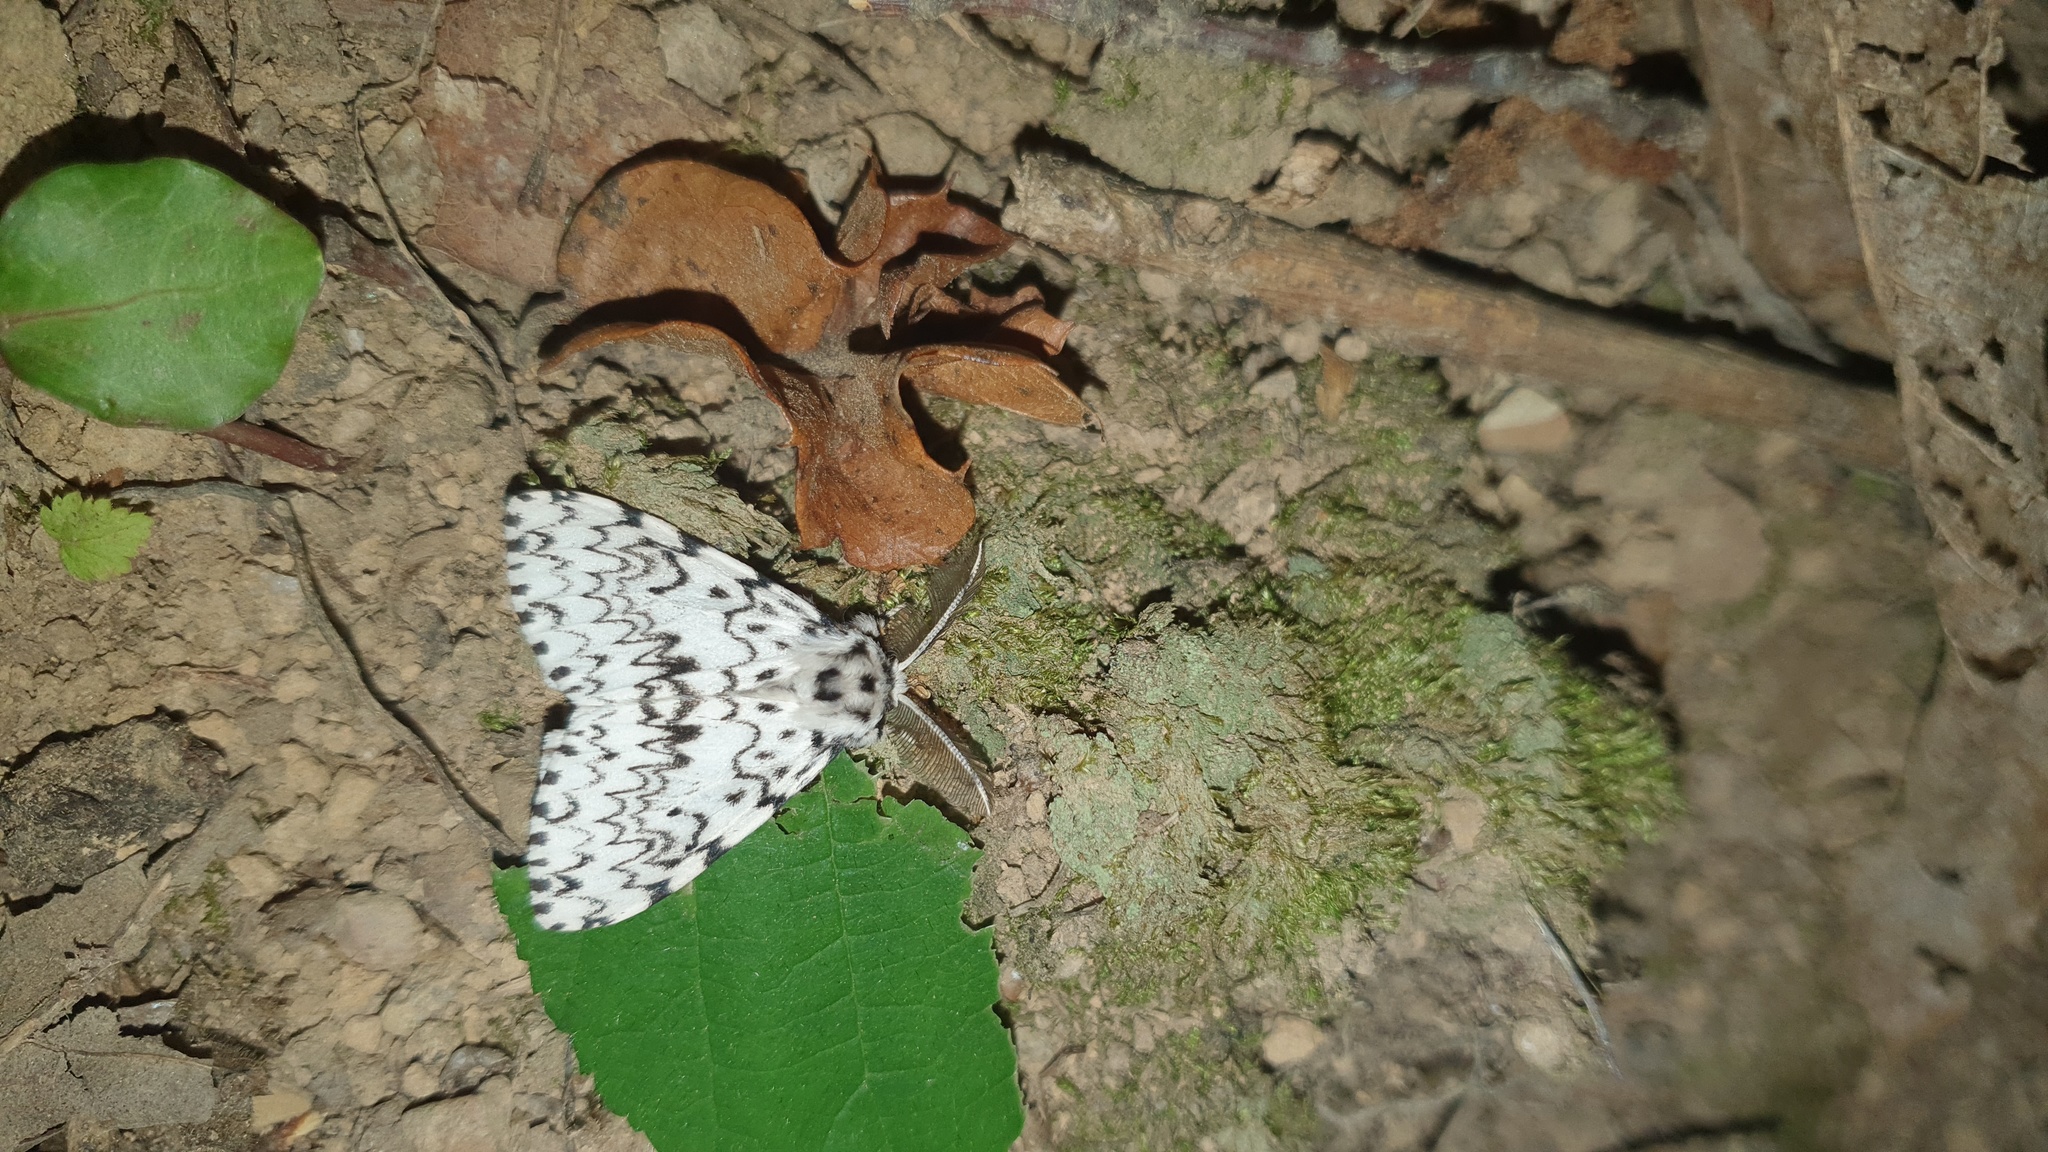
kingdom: Animalia
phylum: Arthropoda
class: Insecta
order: Lepidoptera
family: Erebidae
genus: Lymantria
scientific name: Lymantria monacha
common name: Black arches
